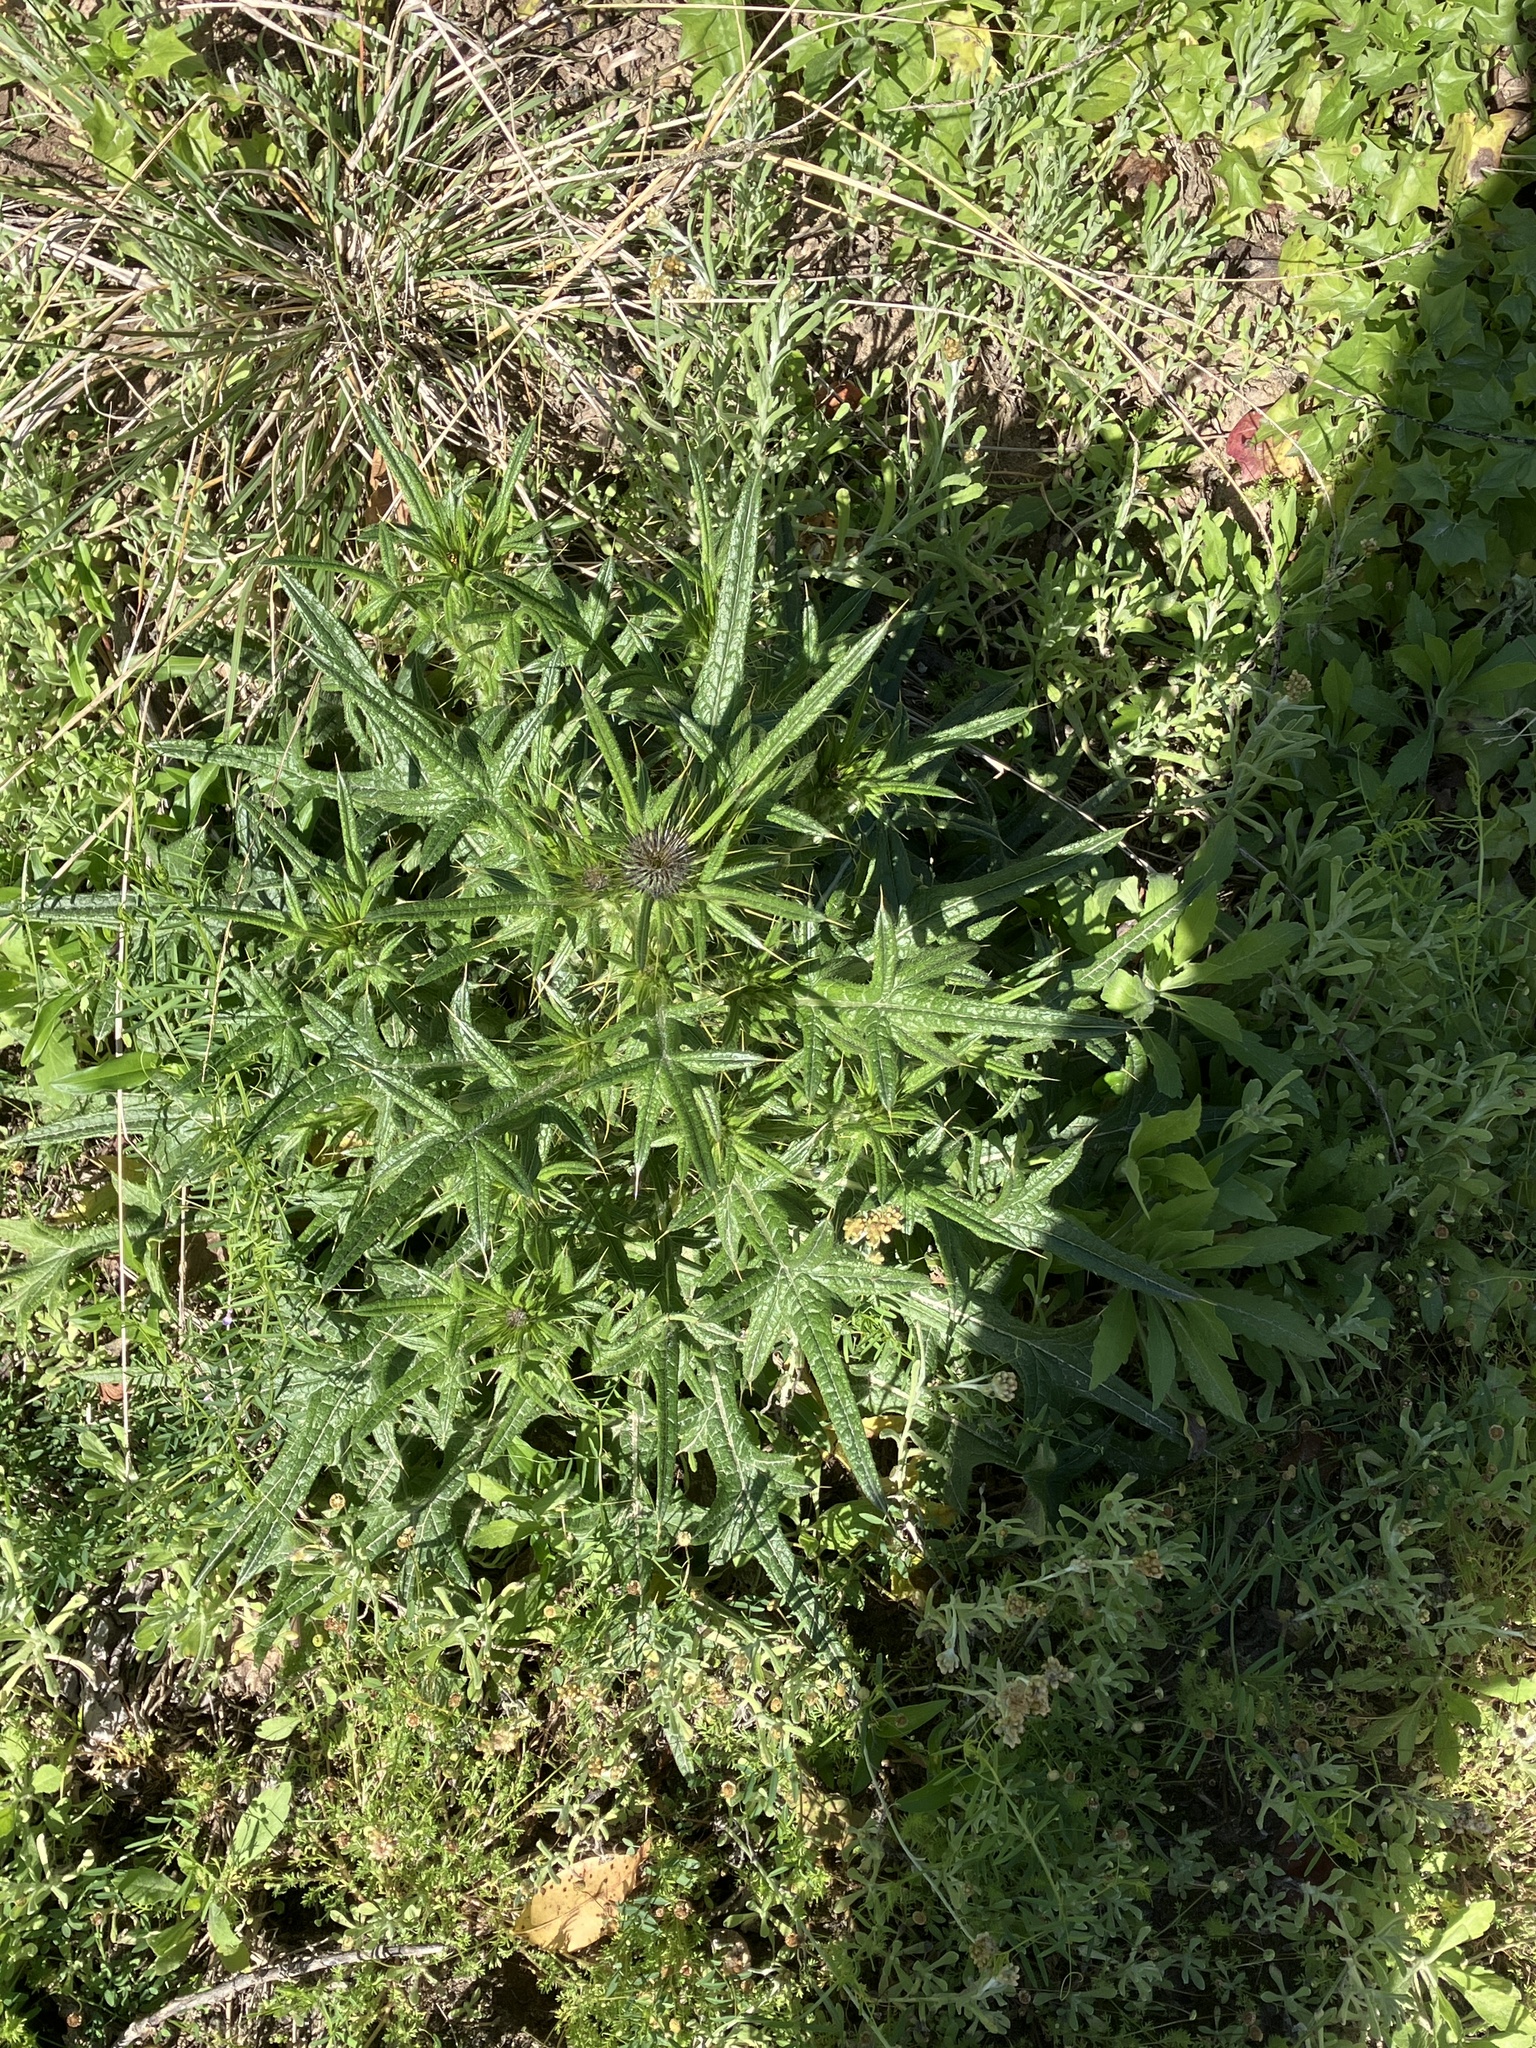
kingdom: Plantae
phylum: Tracheophyta
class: Magnoliopsida
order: Asterales
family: Asteraceae
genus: Cirsium
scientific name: Cirsium vulgare
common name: Bull thistle
